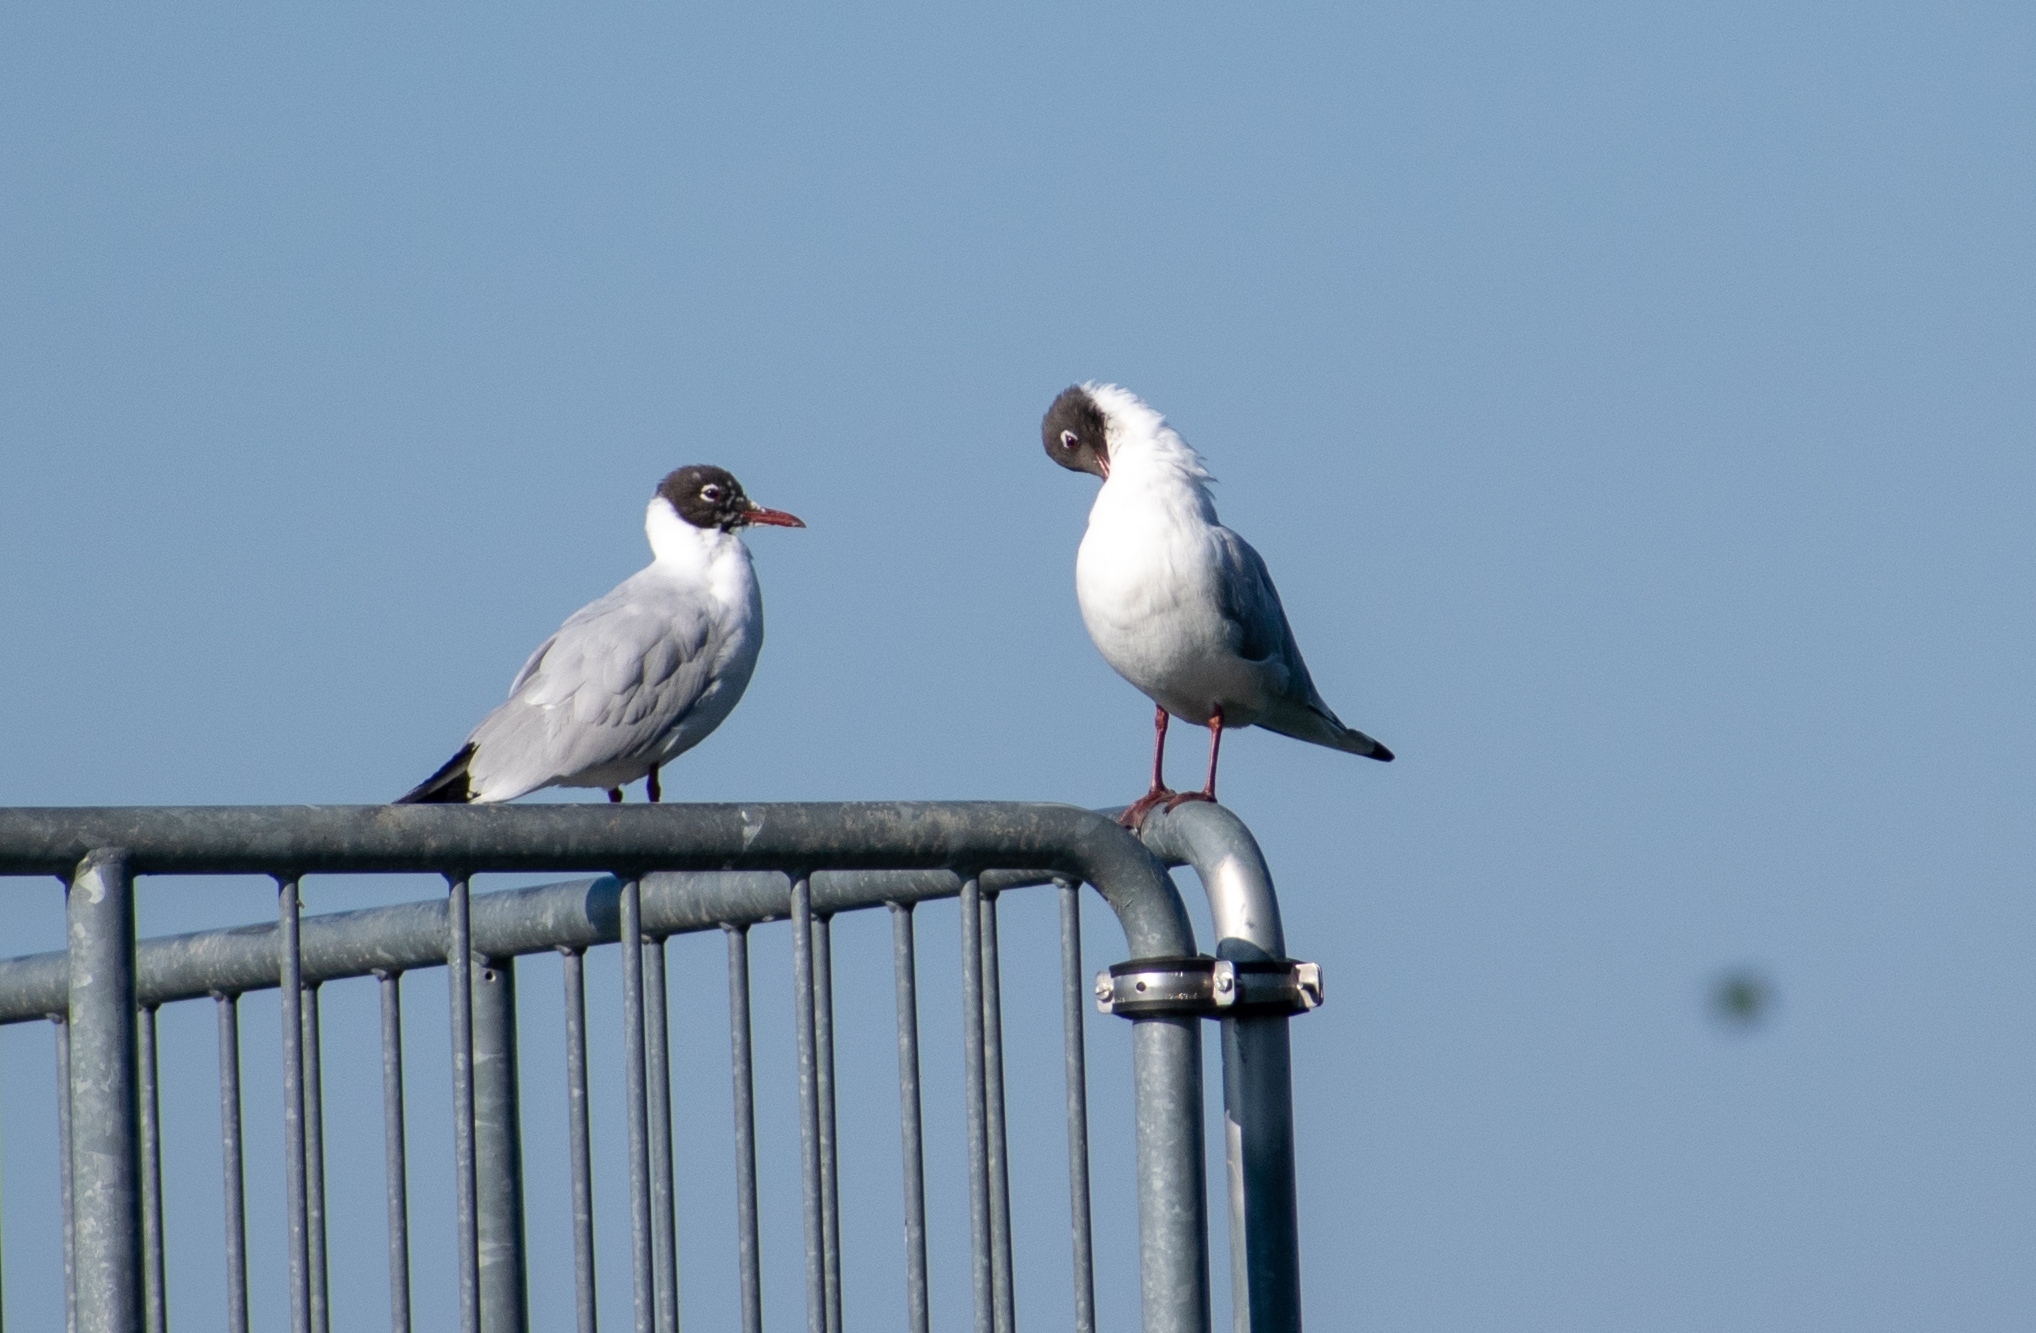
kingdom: Animalia
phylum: Chordata
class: Aves
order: Charadriiformes
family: Laridae
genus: Chroicocephalus
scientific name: Chroicocephalus ridibundus
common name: Black-headed gull
